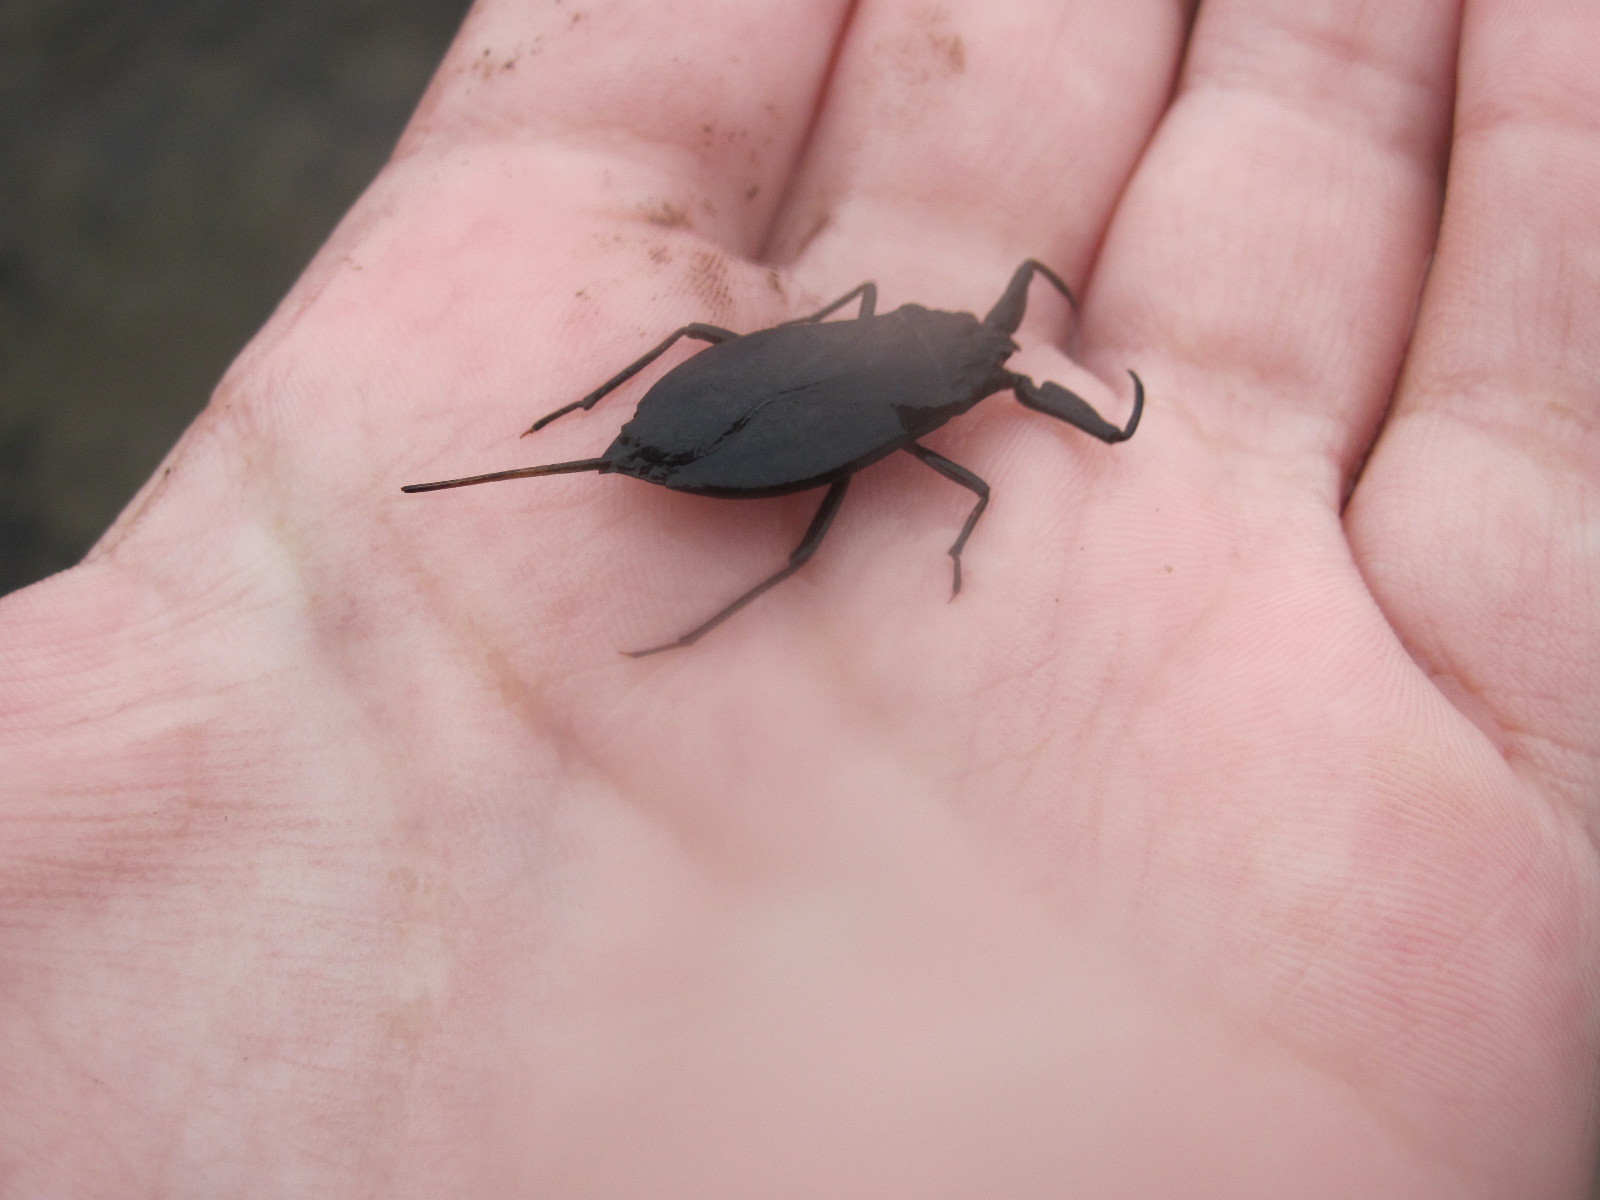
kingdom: Animalia
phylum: Arthropoda
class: Insecta
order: Hemiptera
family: Nepidae
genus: Nepa
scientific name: Nepa cinerea
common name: Water scorpion
